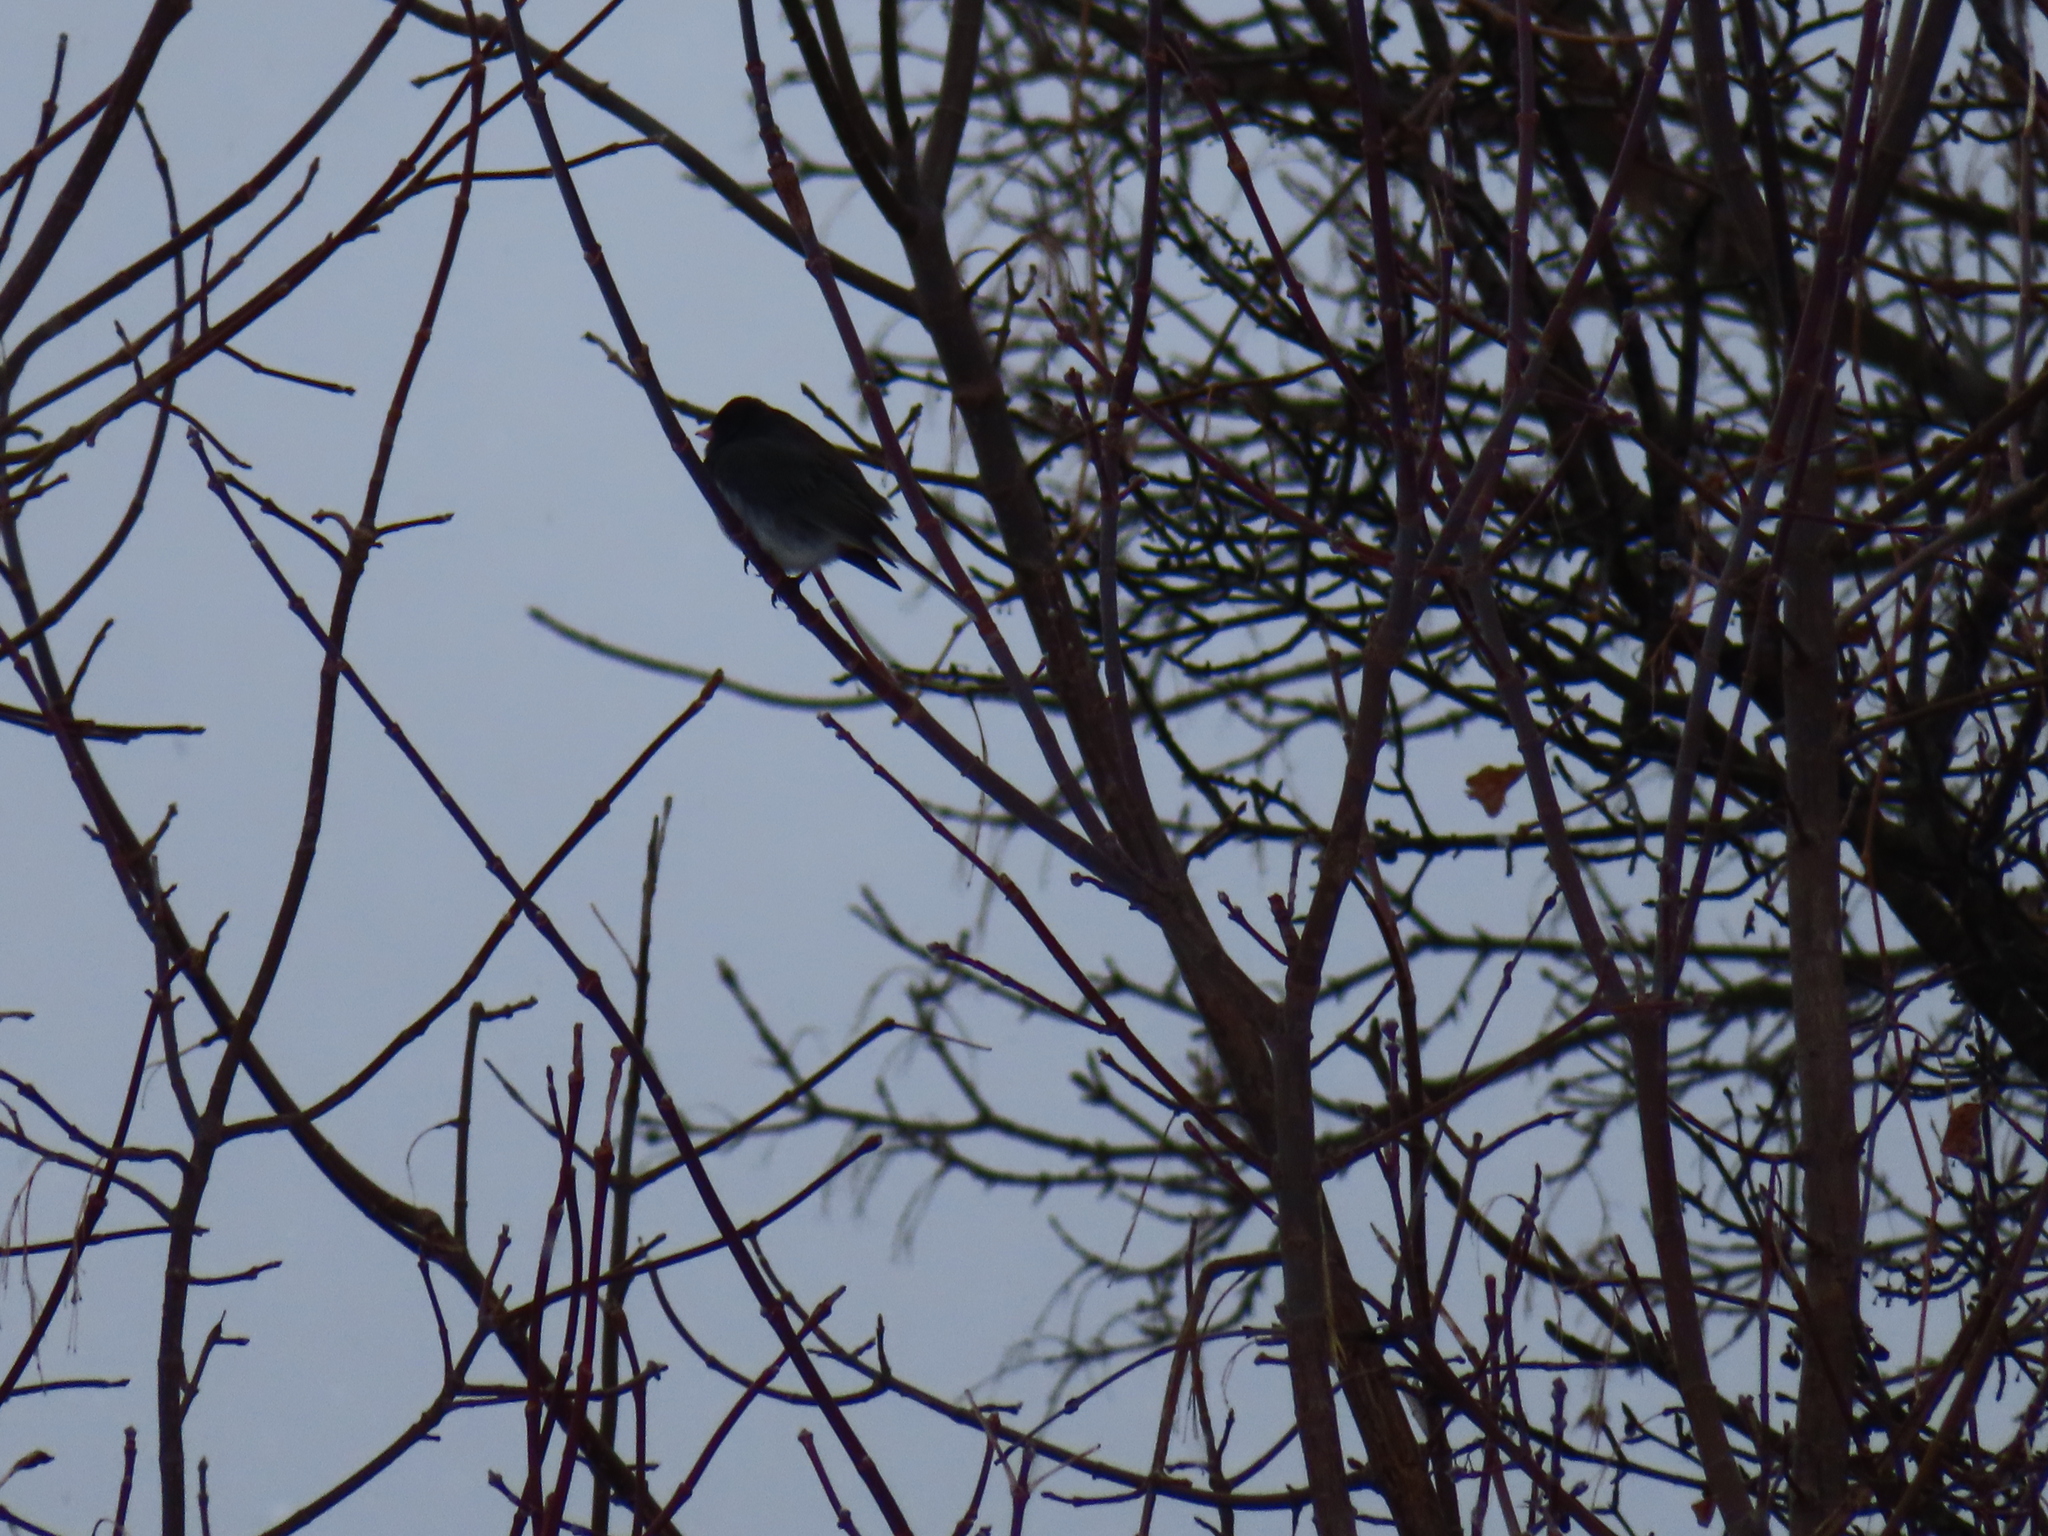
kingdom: Animalia
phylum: Chordata
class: Aves
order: Passeriformes
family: Passerellidae
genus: Junco
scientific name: Junco hyemalis
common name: Dark-eyed junco
